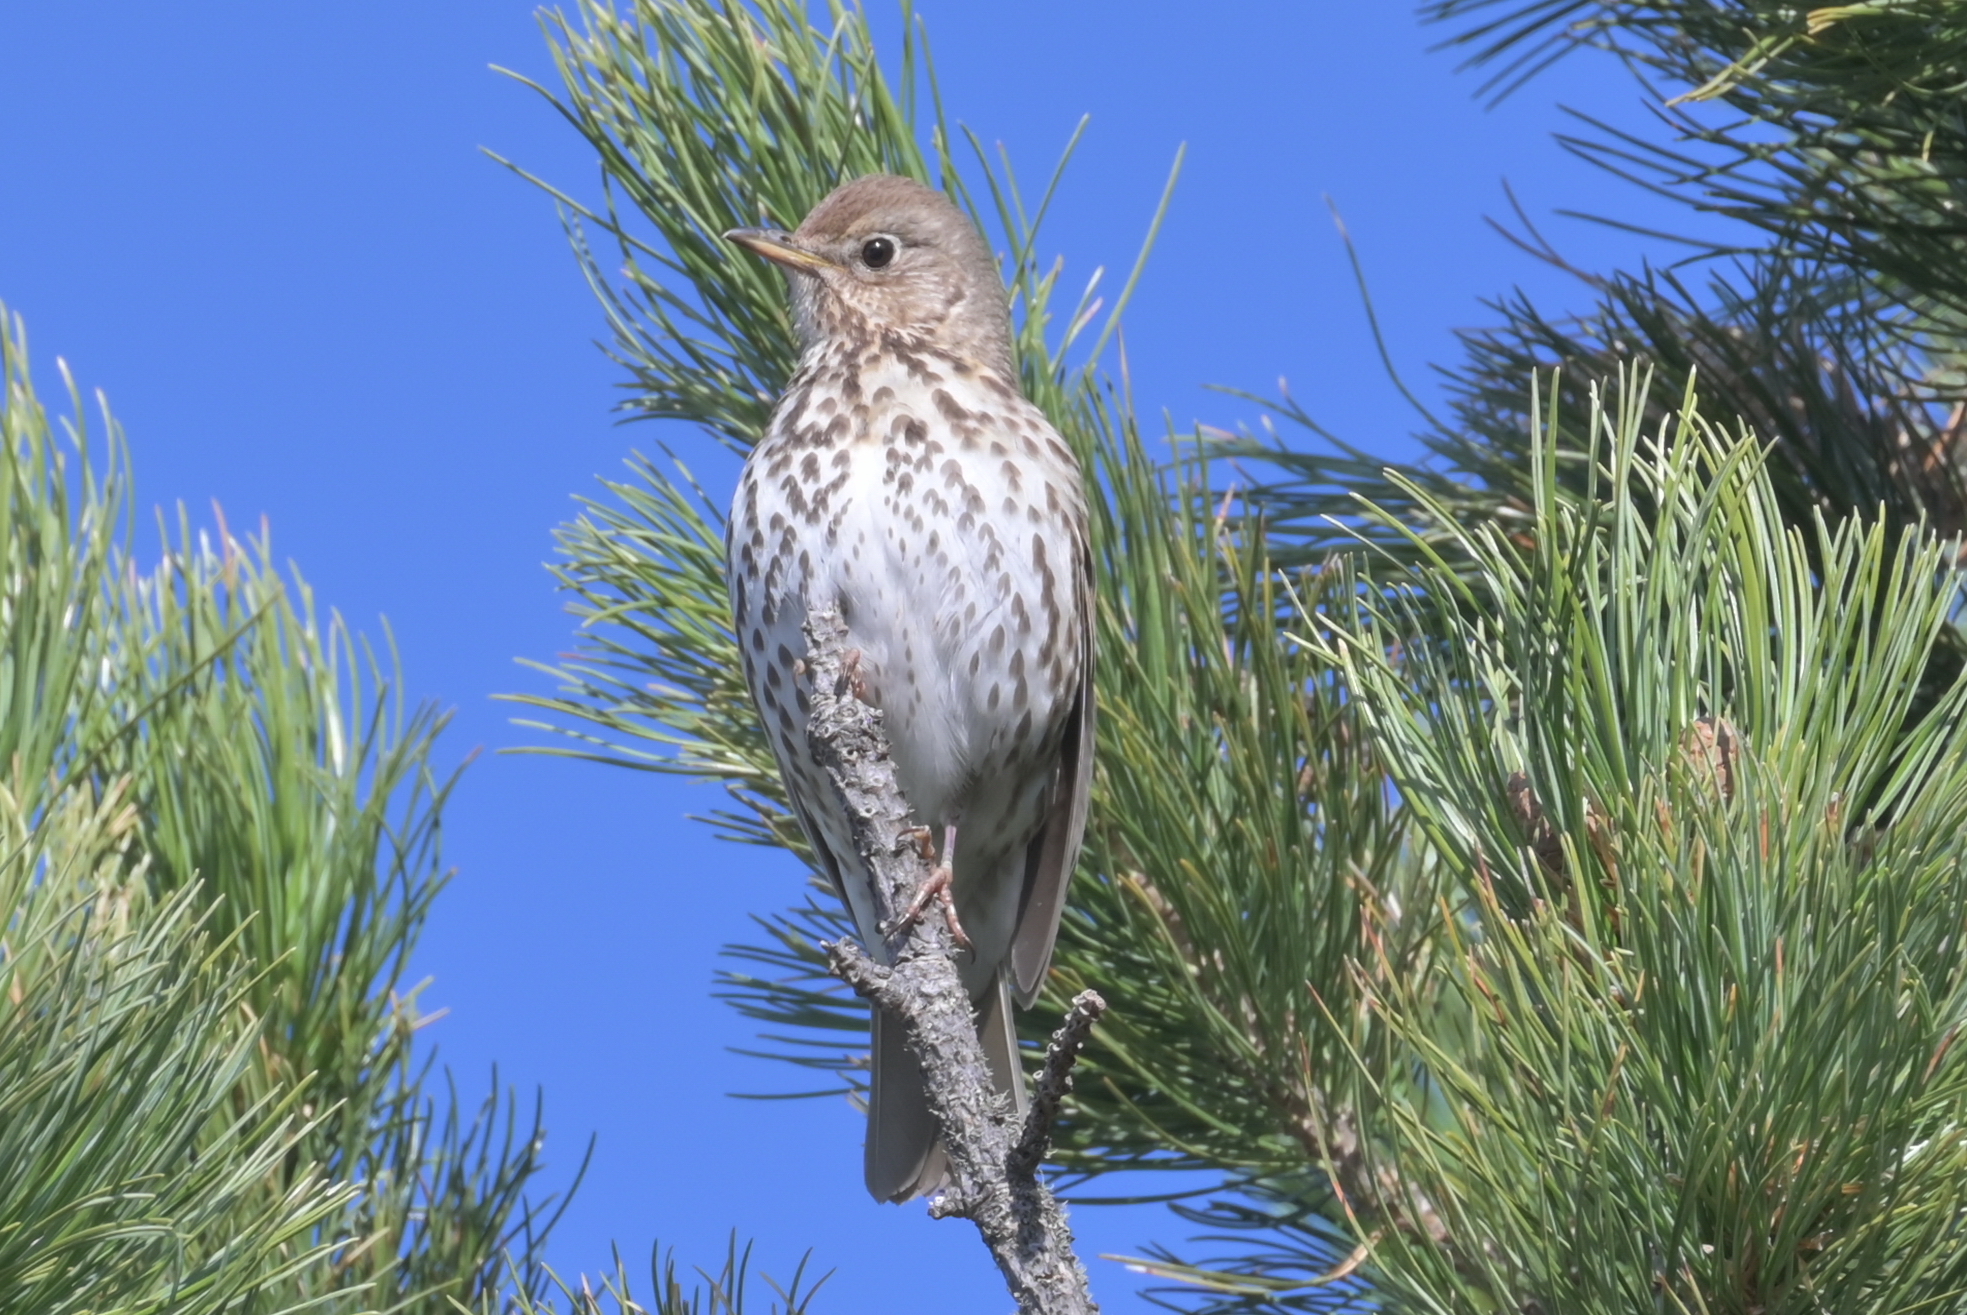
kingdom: Animalia
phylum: Chordata
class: Aves
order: Passeriformes
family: Turdidae
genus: Turdus
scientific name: Turdus philomelos
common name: Song thrush
